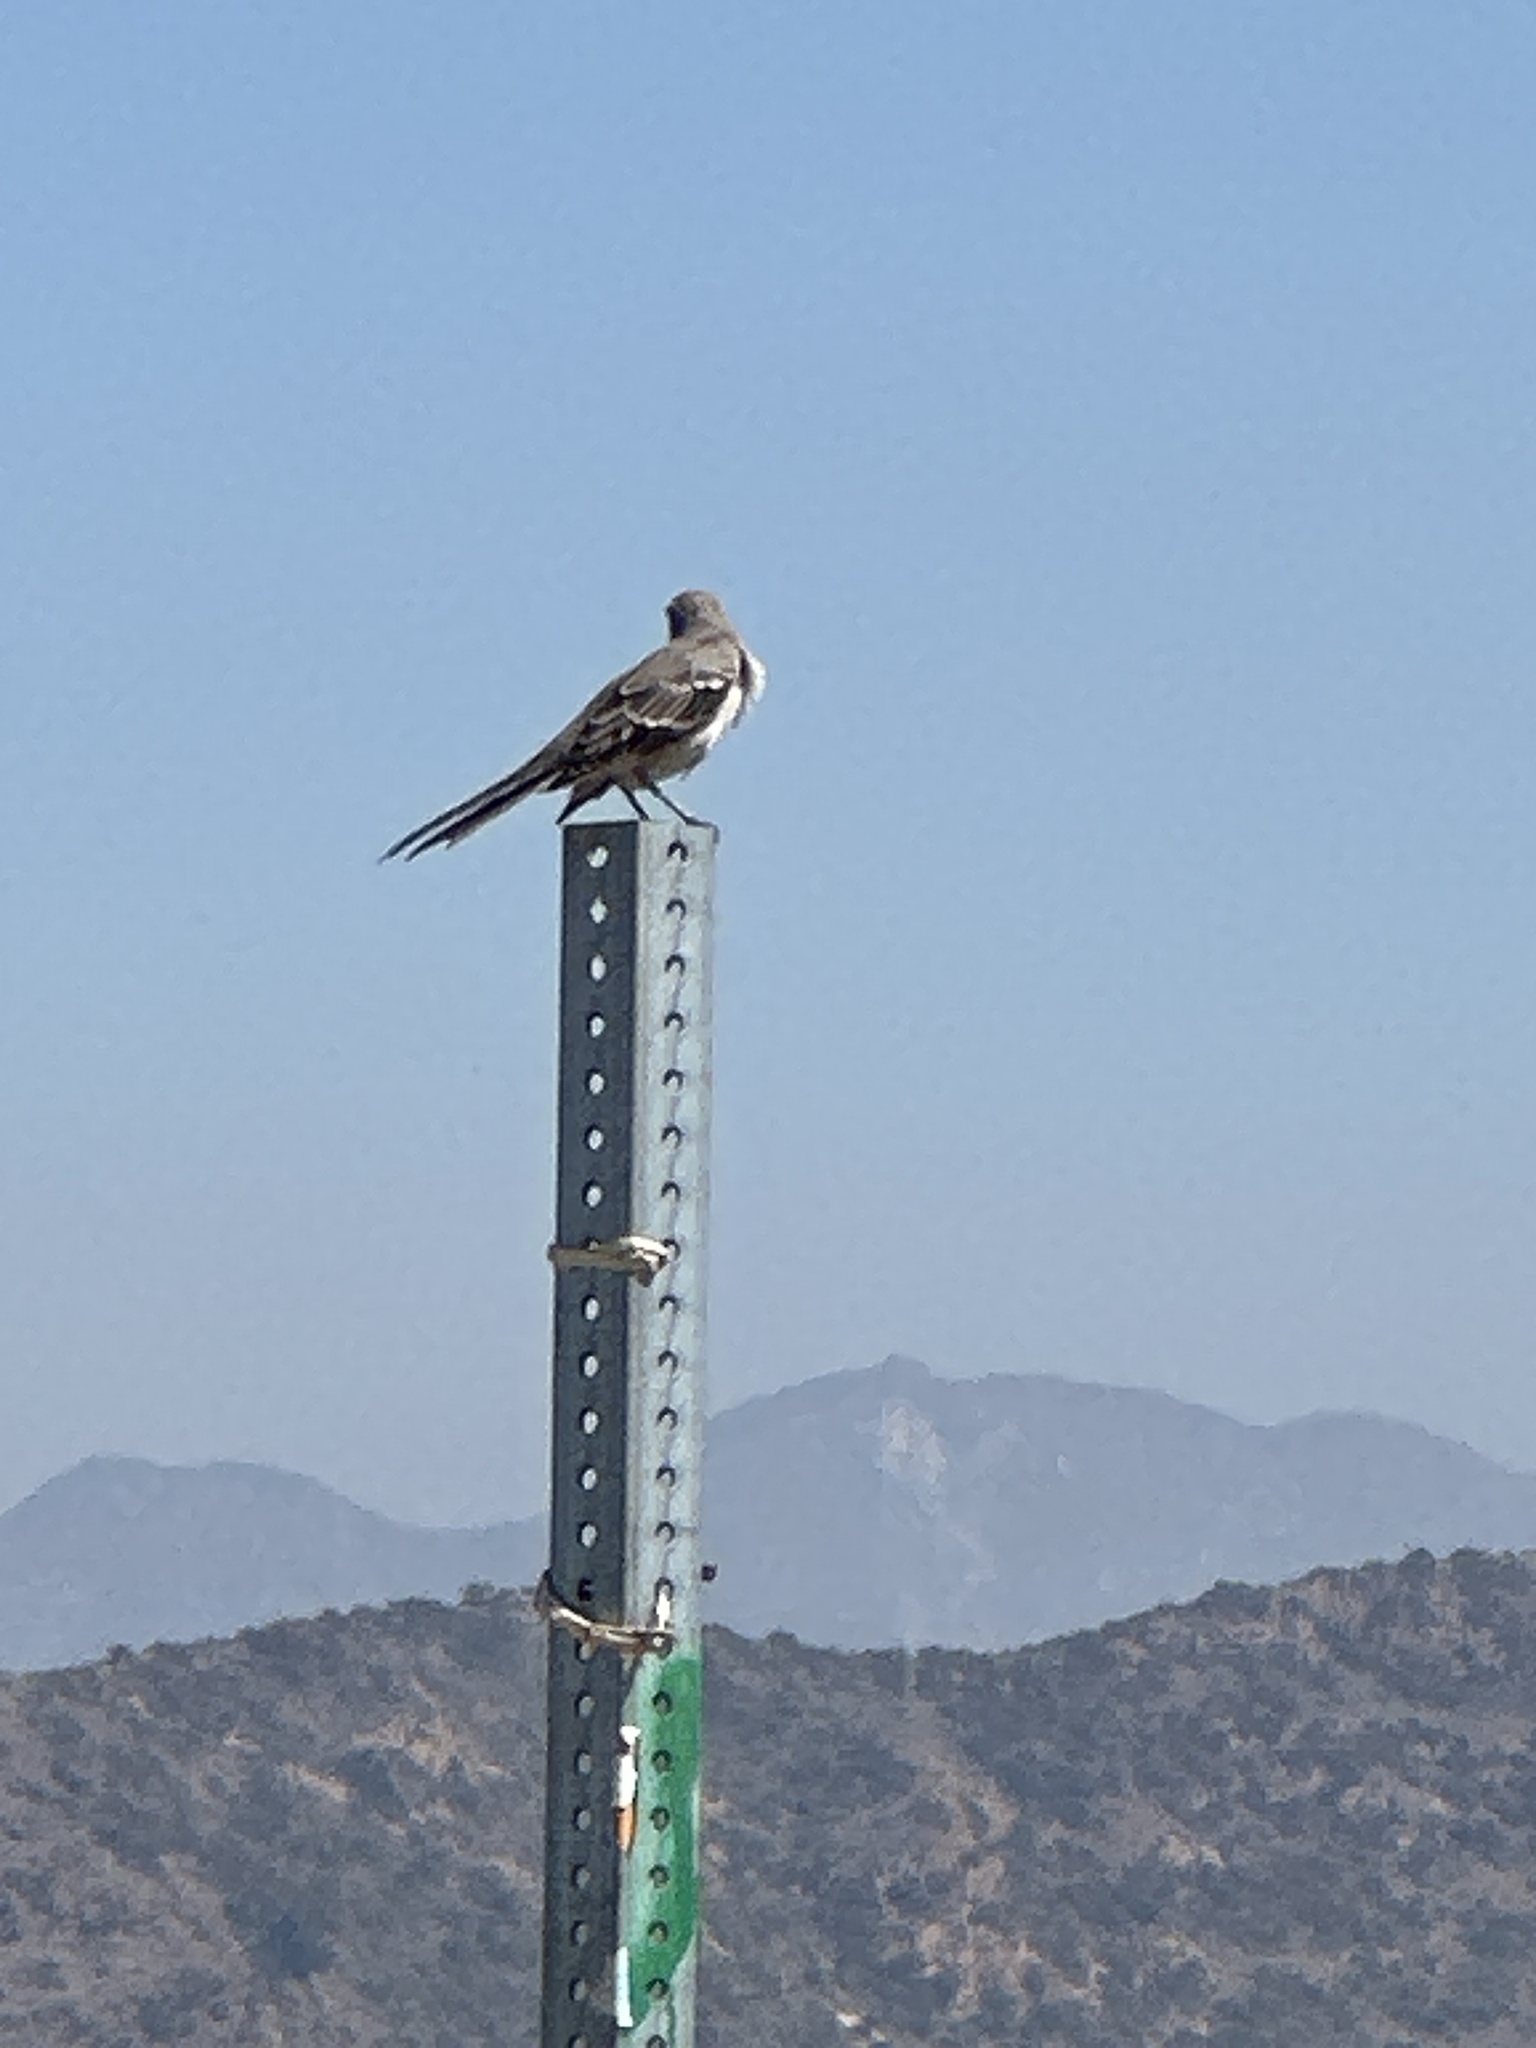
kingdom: Animalia
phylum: Chordata
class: Aves
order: Passeriformes
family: Mimidae
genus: Mimus
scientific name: Mimus polyglottos
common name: Northern mockingbird
